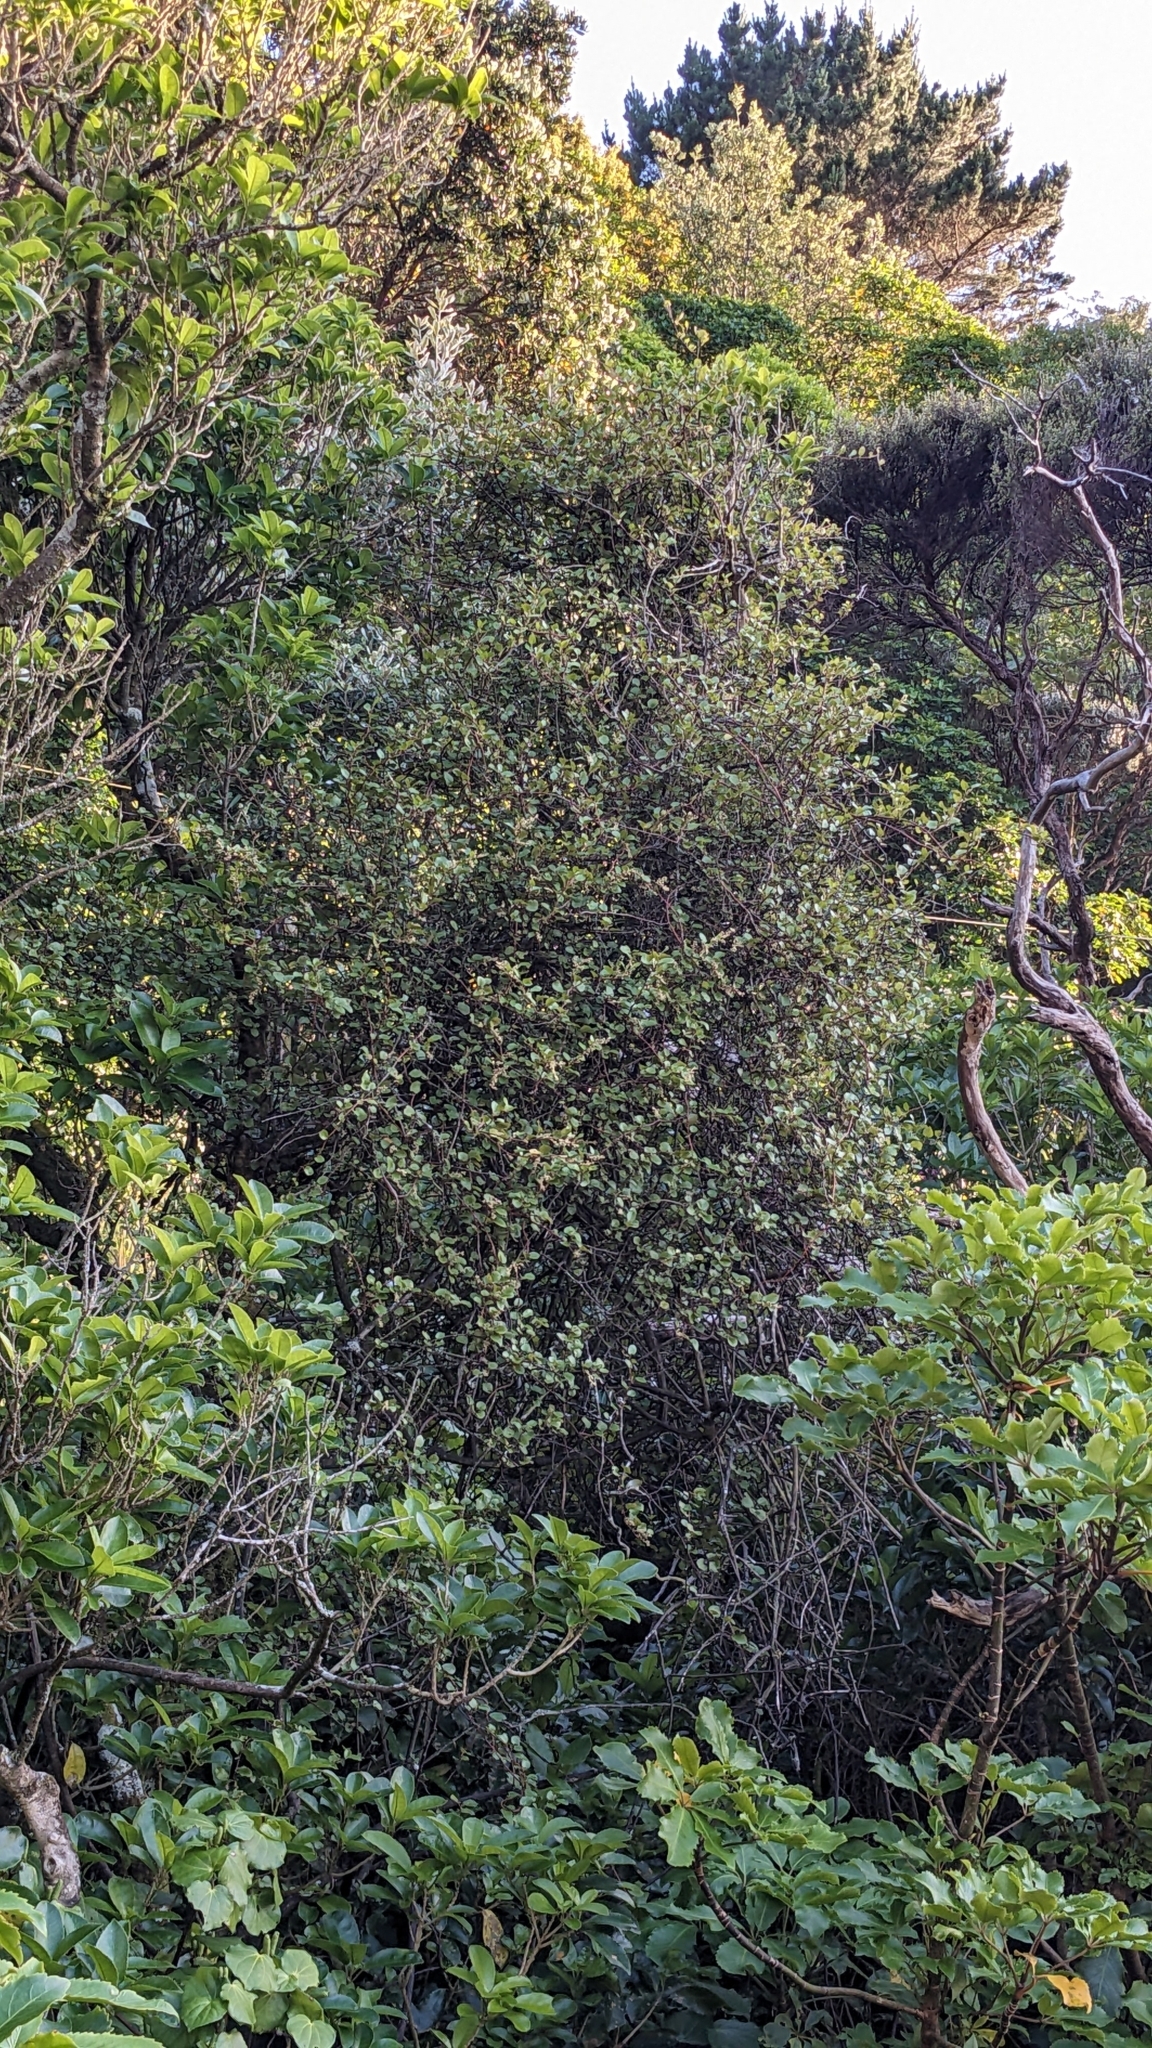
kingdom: Plantae
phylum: Tracheophyta
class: Magnoliopsida
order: Caryophyllales
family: Polygonaceae
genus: Muehlenbeckia
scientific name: Muehlenbeckia complexa
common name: Wireplant
